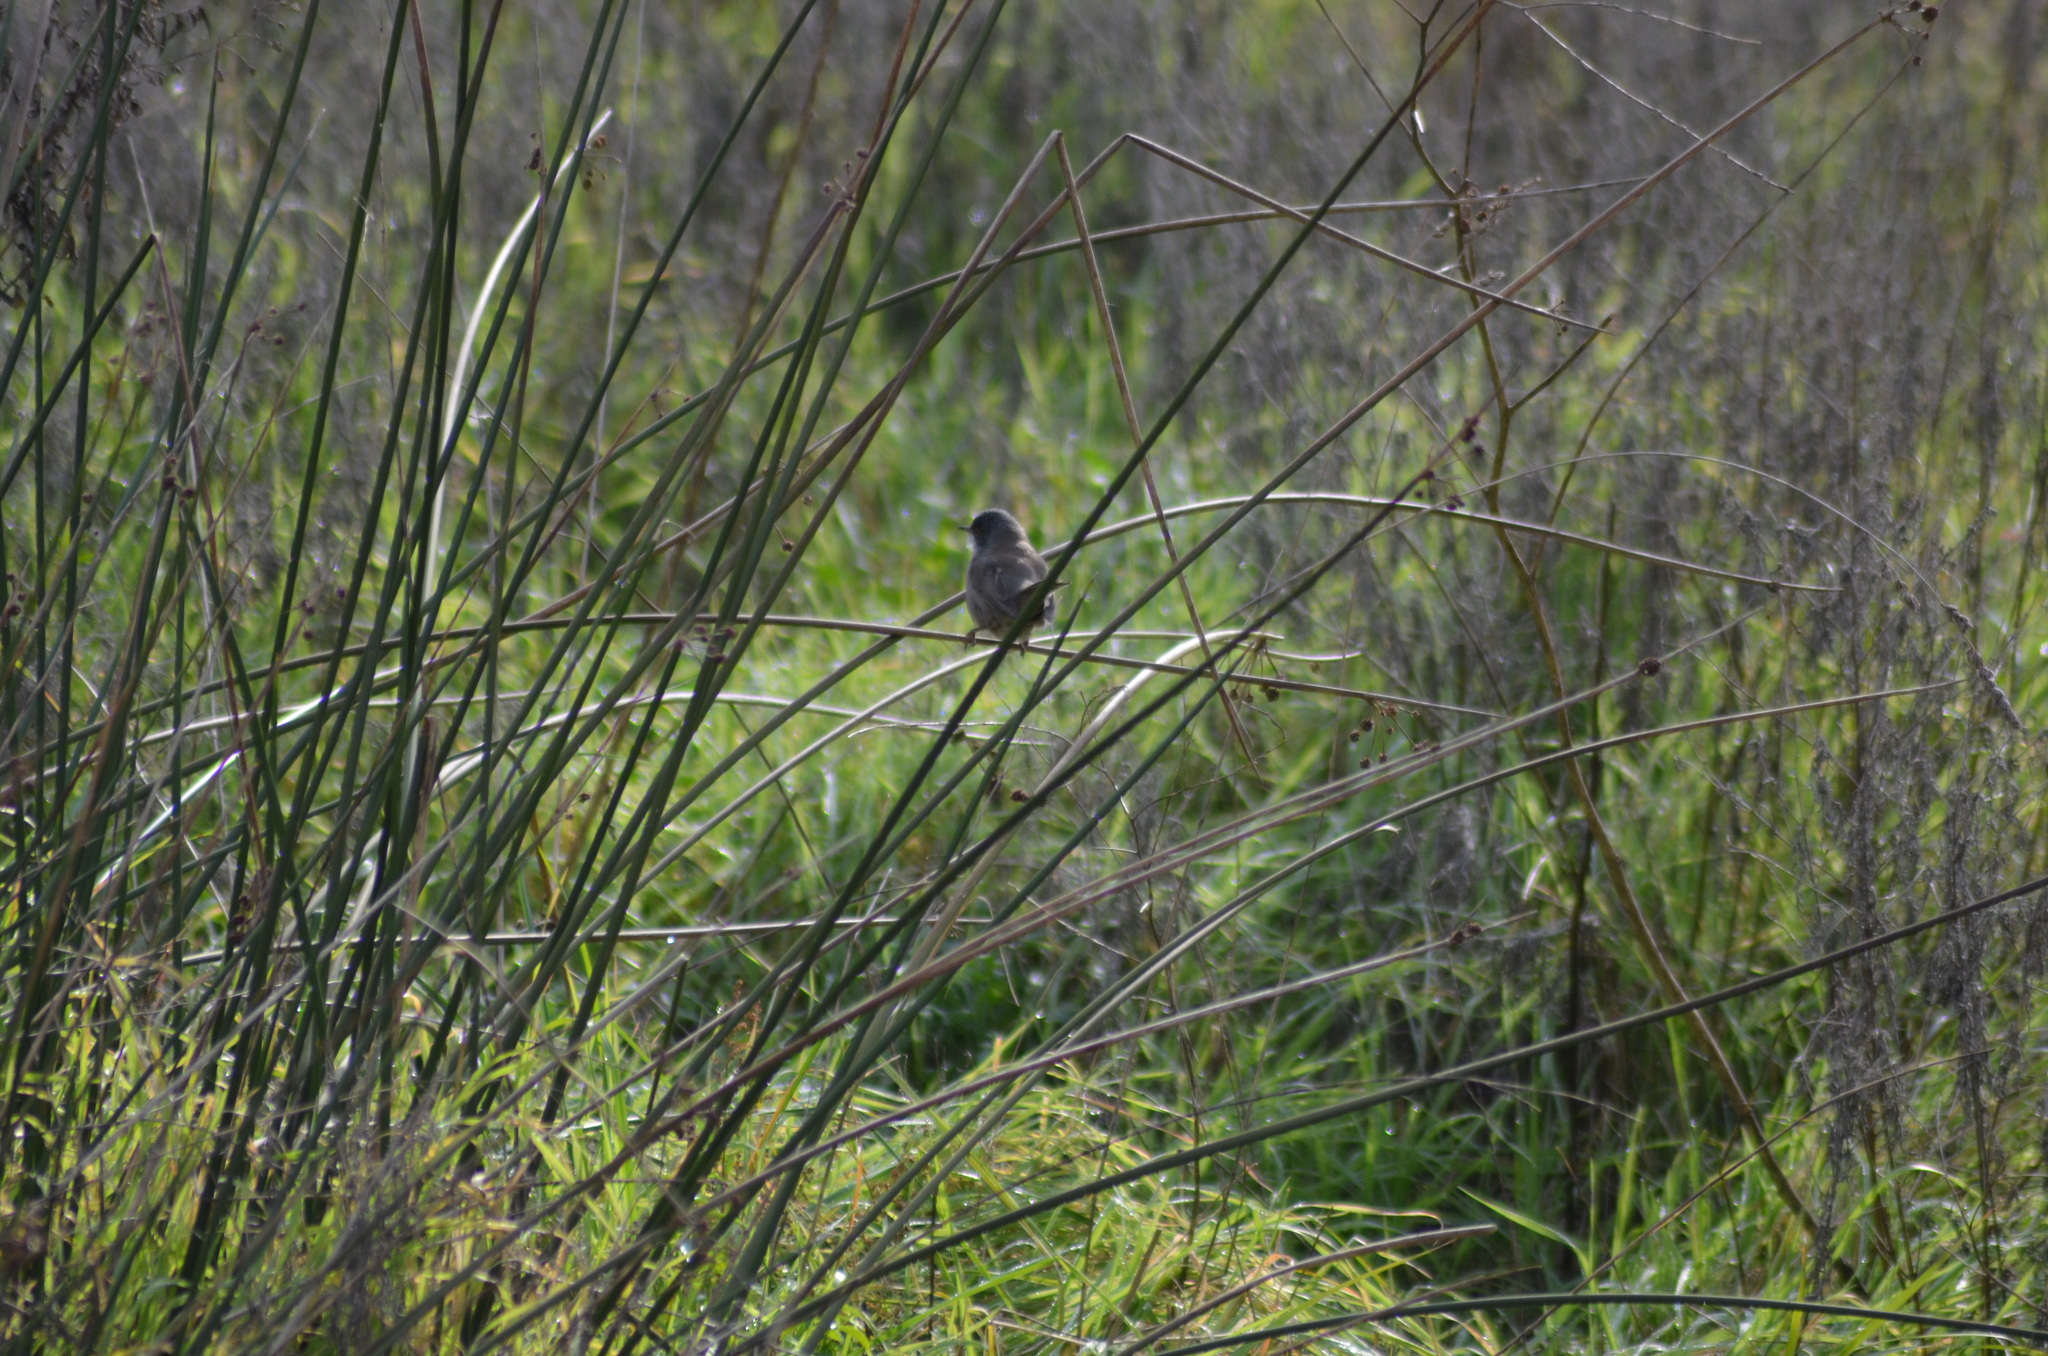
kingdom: Animalia
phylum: Chordata
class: Aves
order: Passeriformes
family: Sylviidae
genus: Curruca
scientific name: Curruca melanocephala
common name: Sardinian warbler
